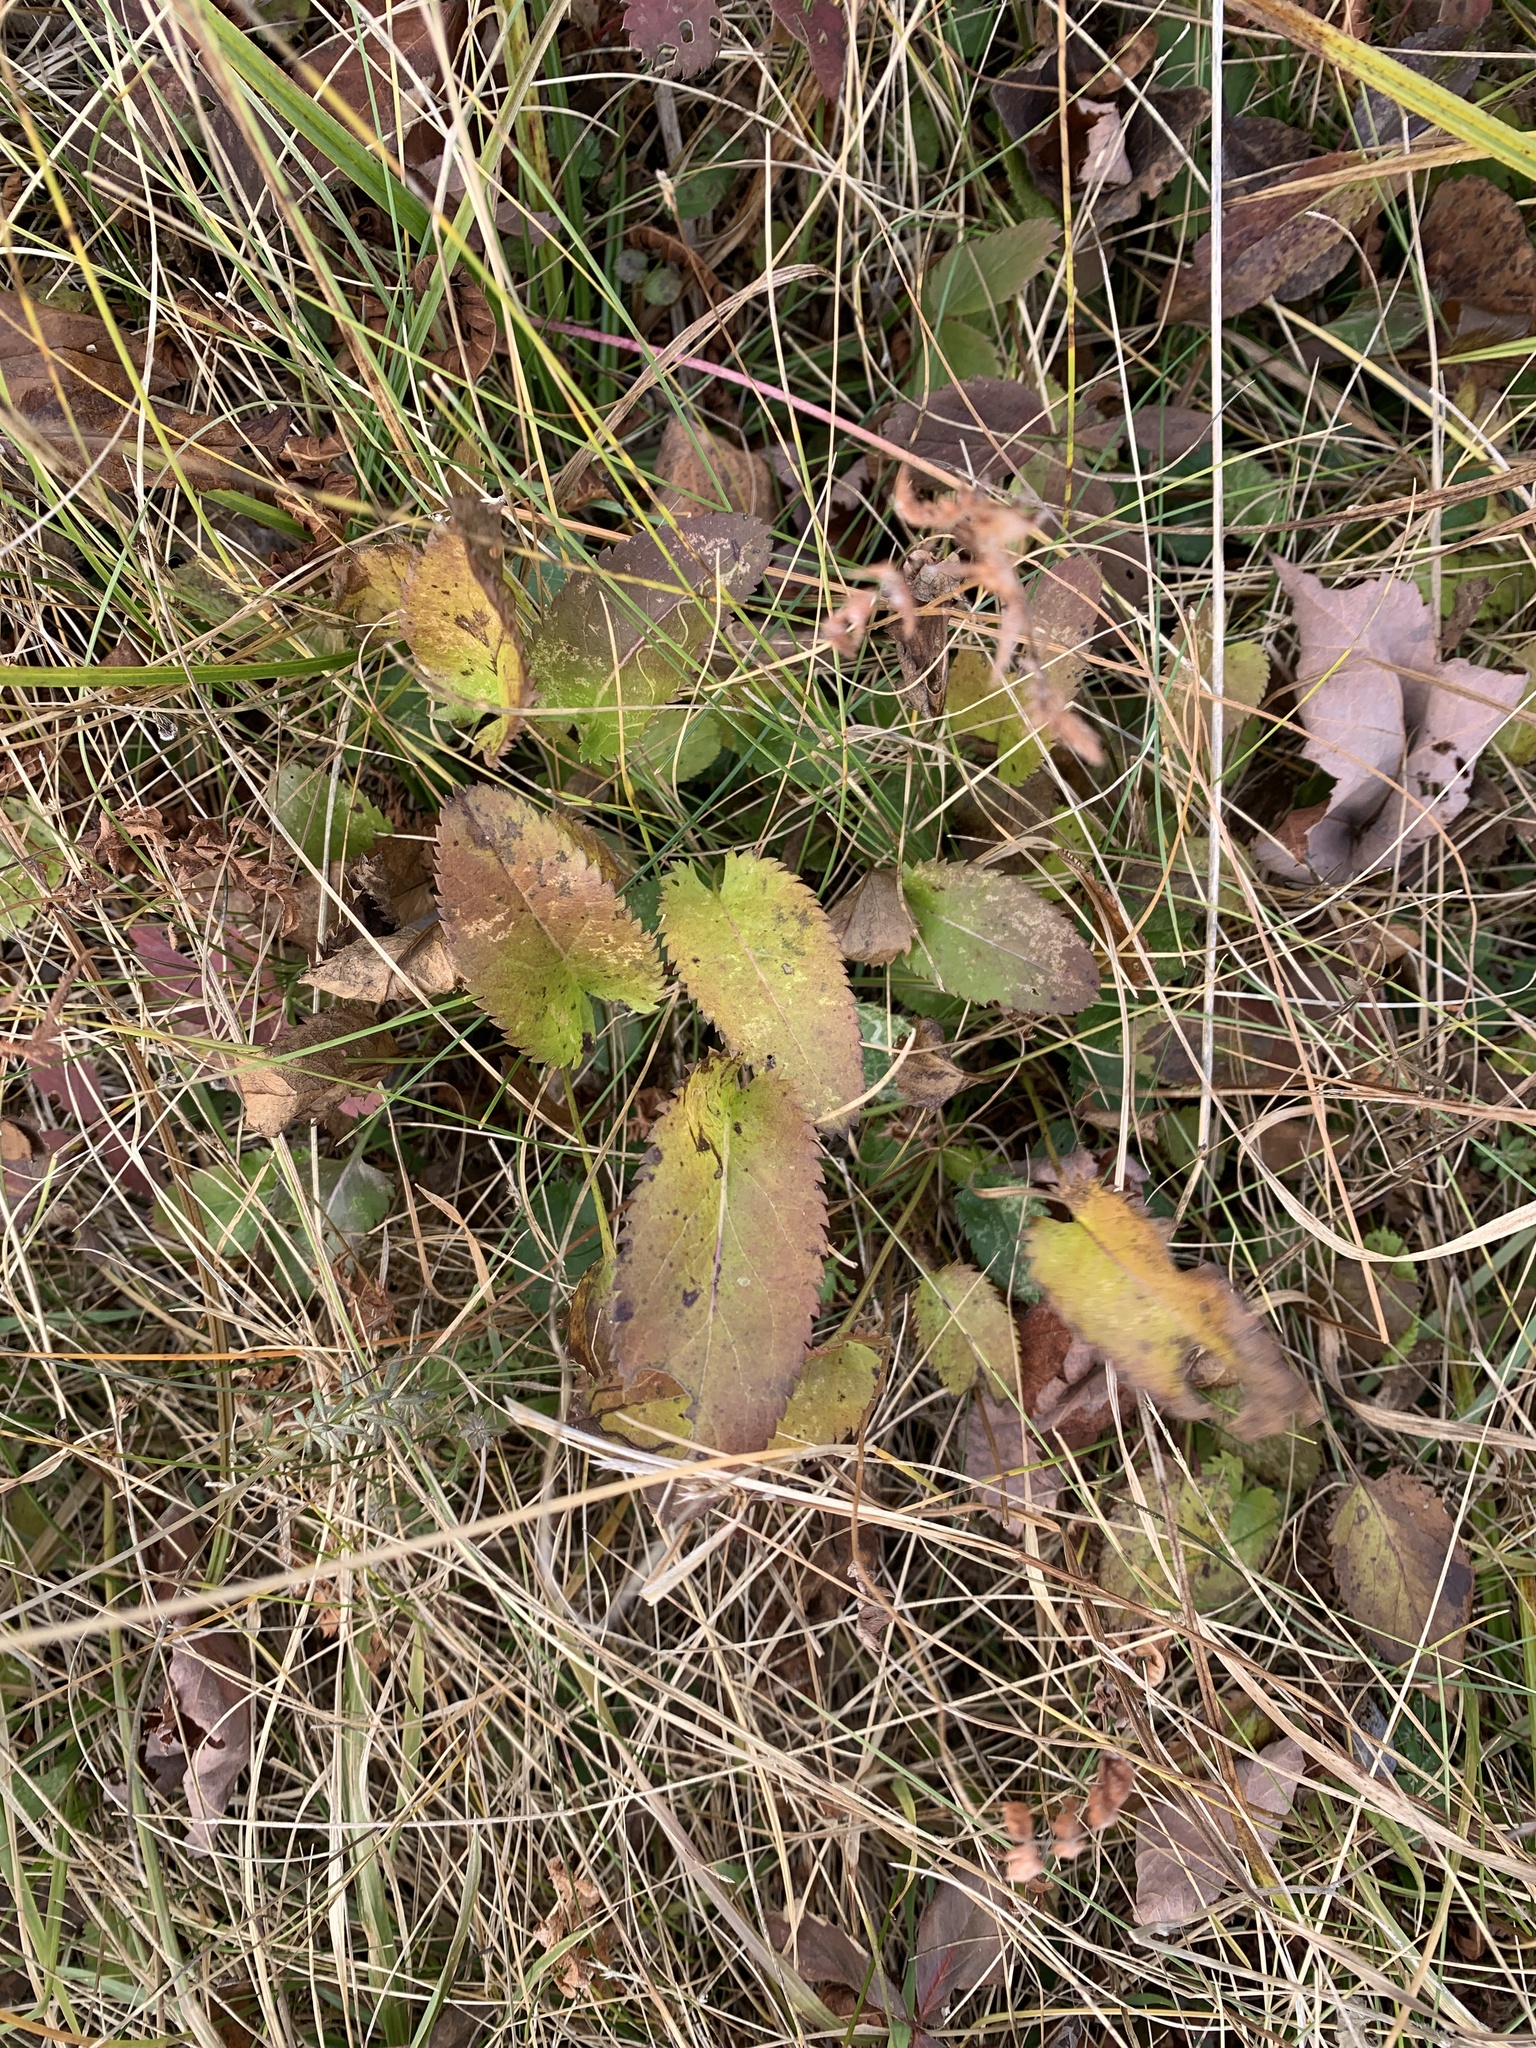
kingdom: Plantae
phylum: Tracheophyta
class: Magnoliopsida
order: Asterales
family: Asteraceae
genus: Packera
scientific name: Packera schweinitziana
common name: Schweinitz's ragwort
